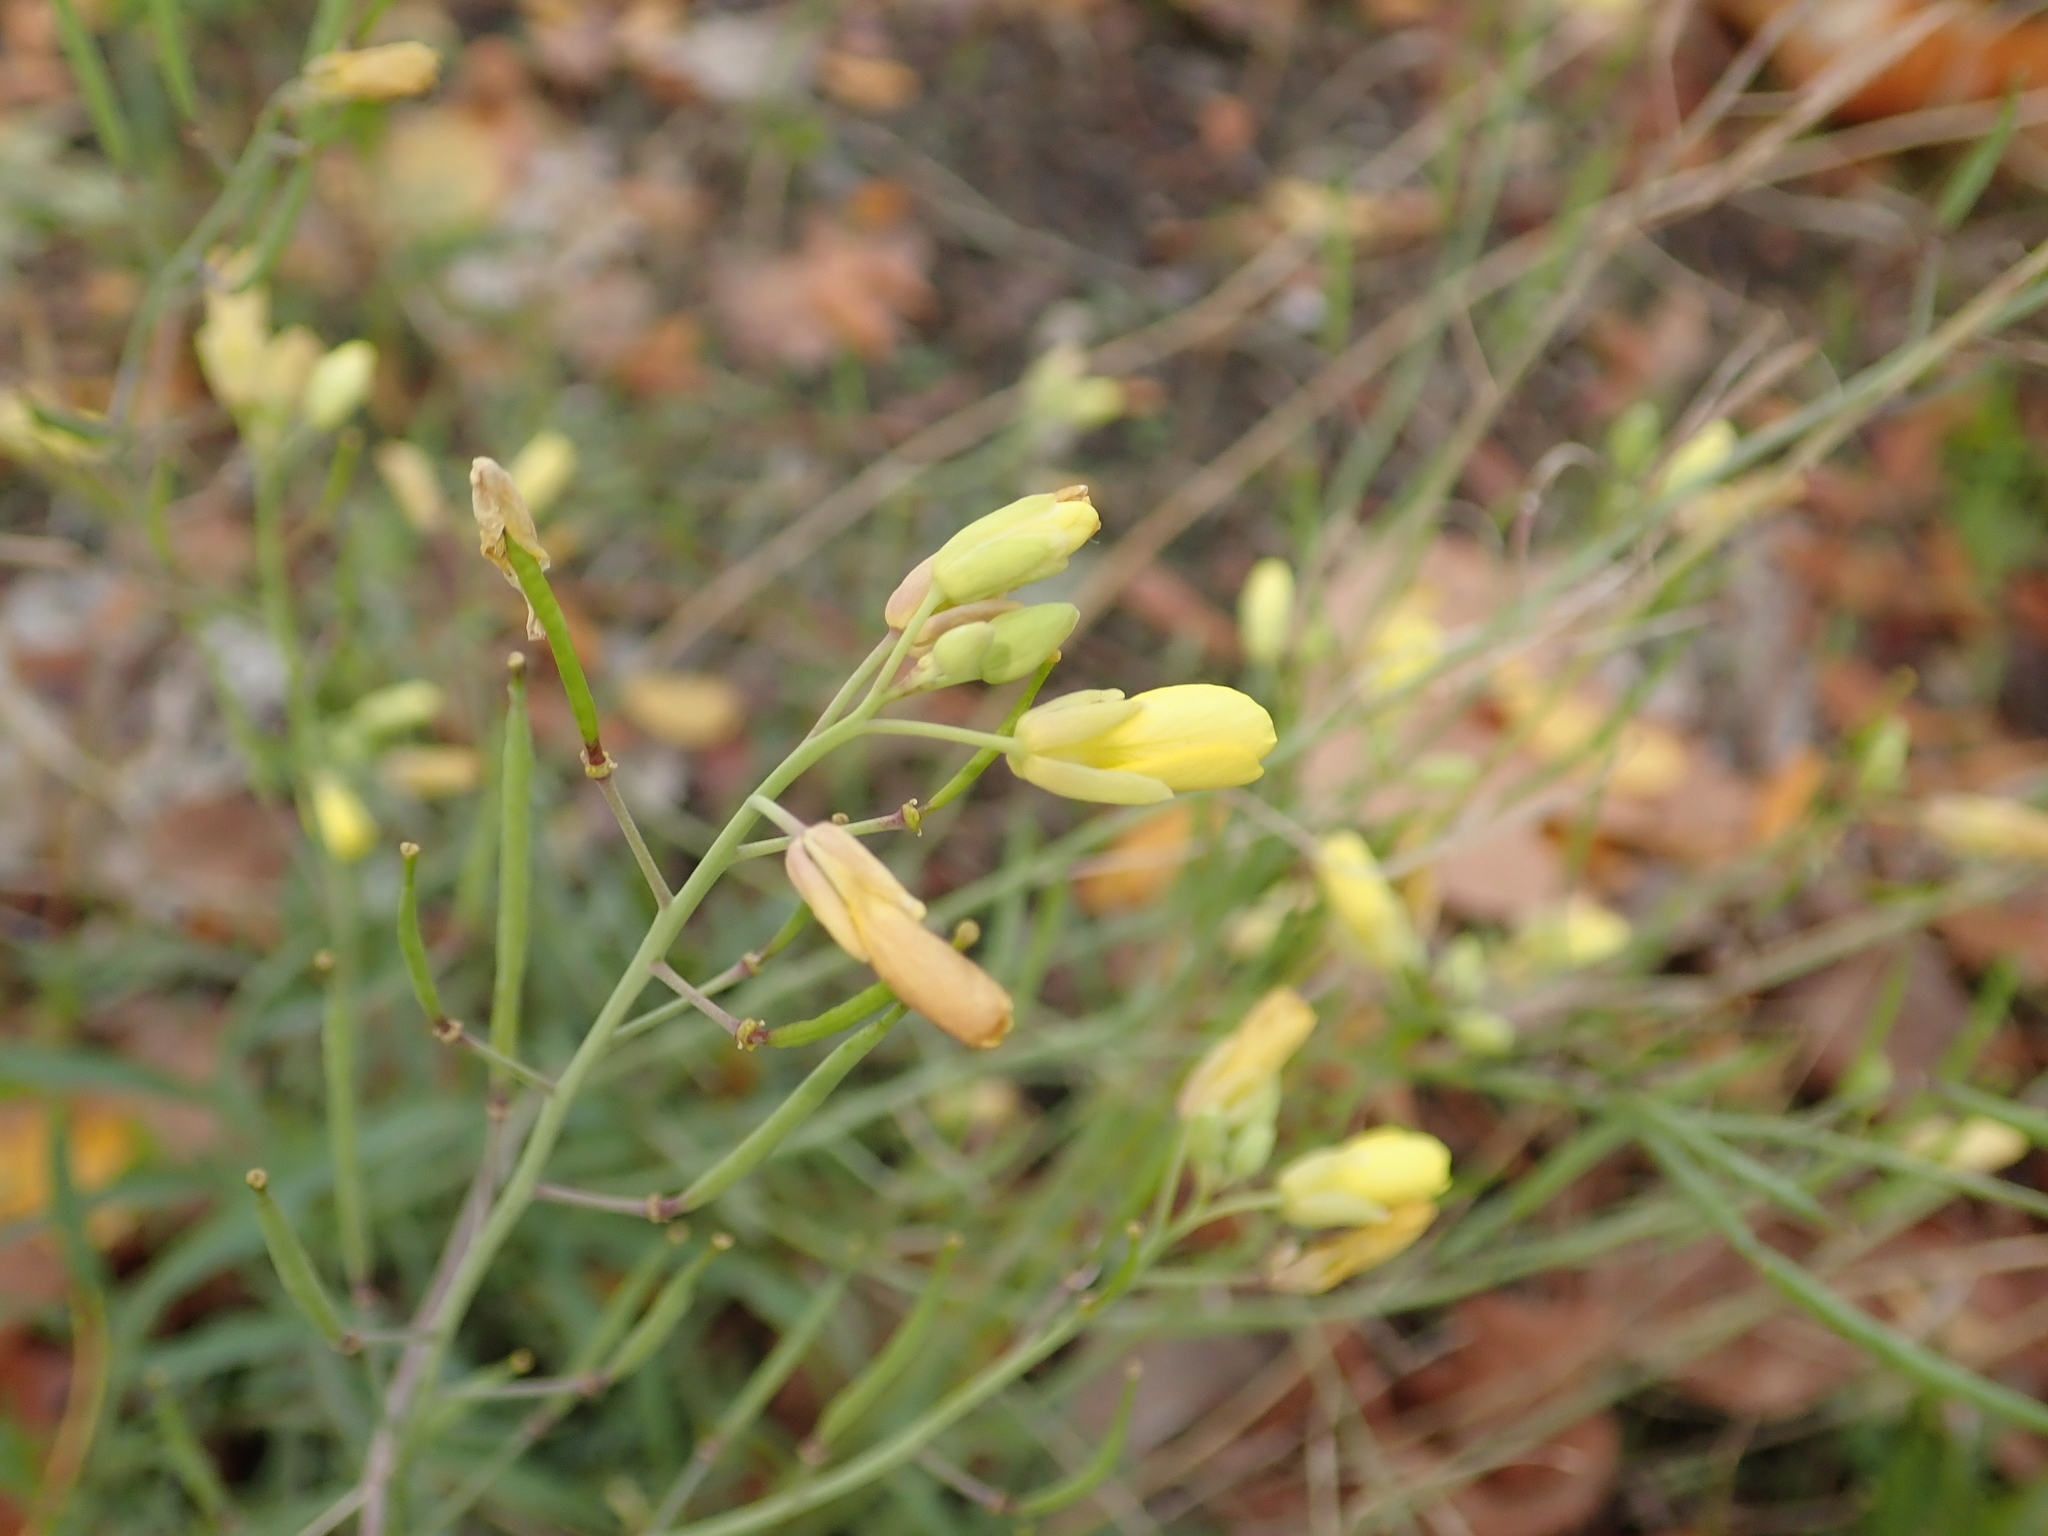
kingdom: Plantae
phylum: Tracheophyta
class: Magnoliopsida
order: Brassicales
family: Brassicaceae
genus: Diplotaxis
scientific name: Diplotaxis tenuifolia
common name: Perennial wall-rocket
